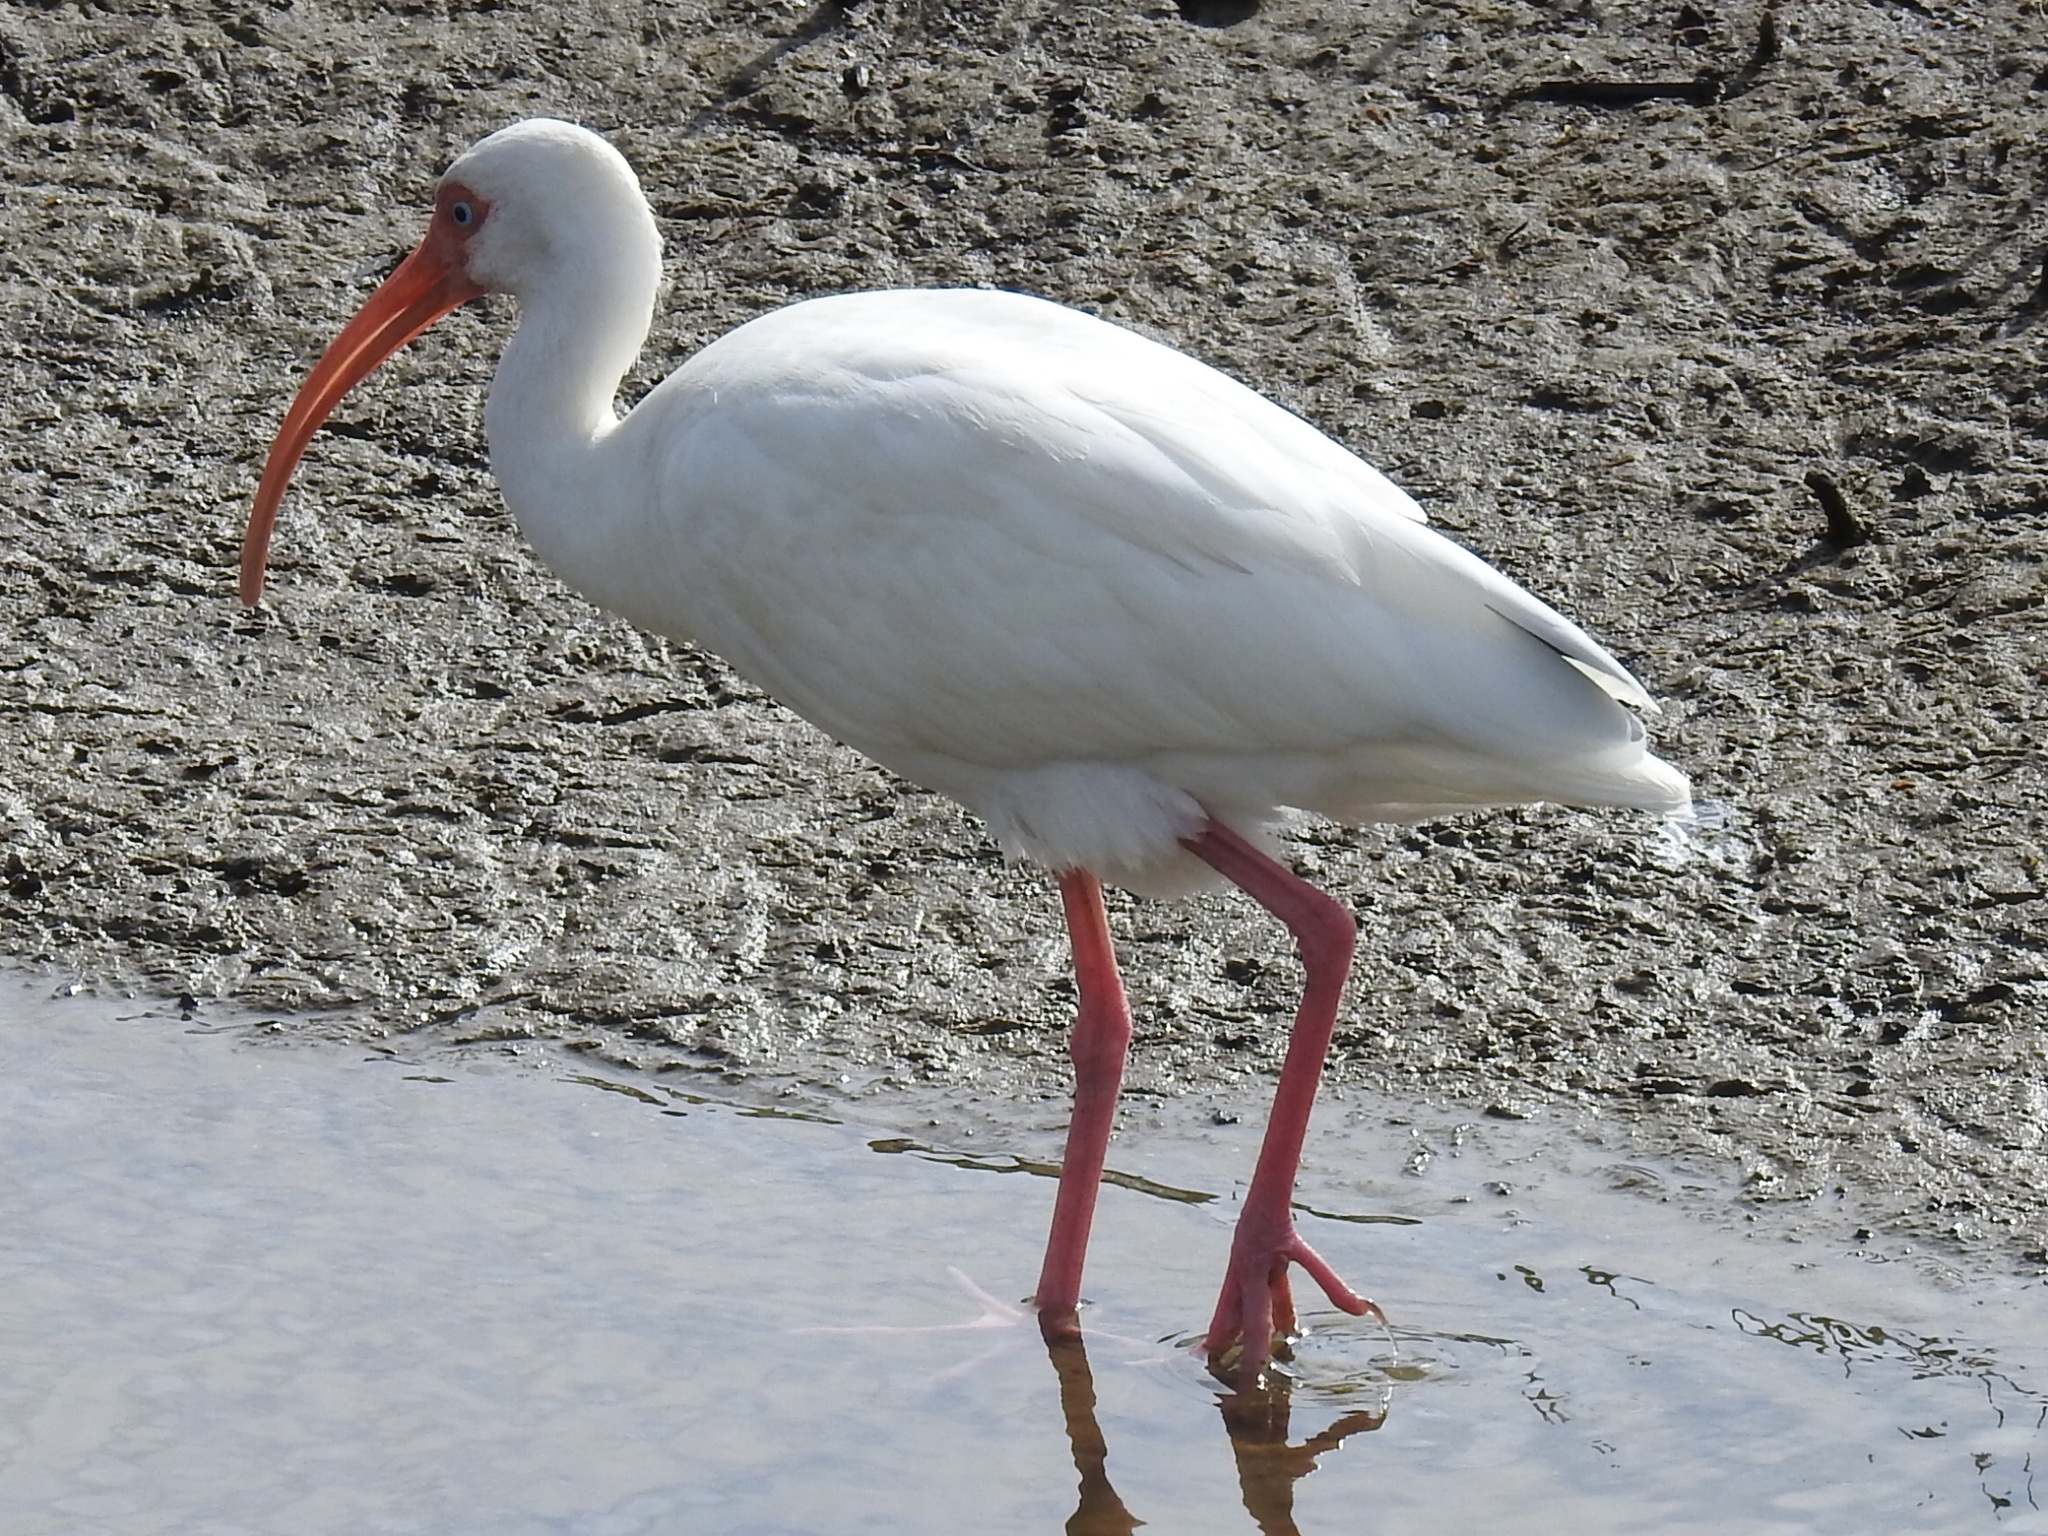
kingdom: Animalia
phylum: Chordata
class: Aves
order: Pelecaniformes
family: Threskiornithidae
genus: Eudocimus
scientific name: Eudocimus albus
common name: White ibis
